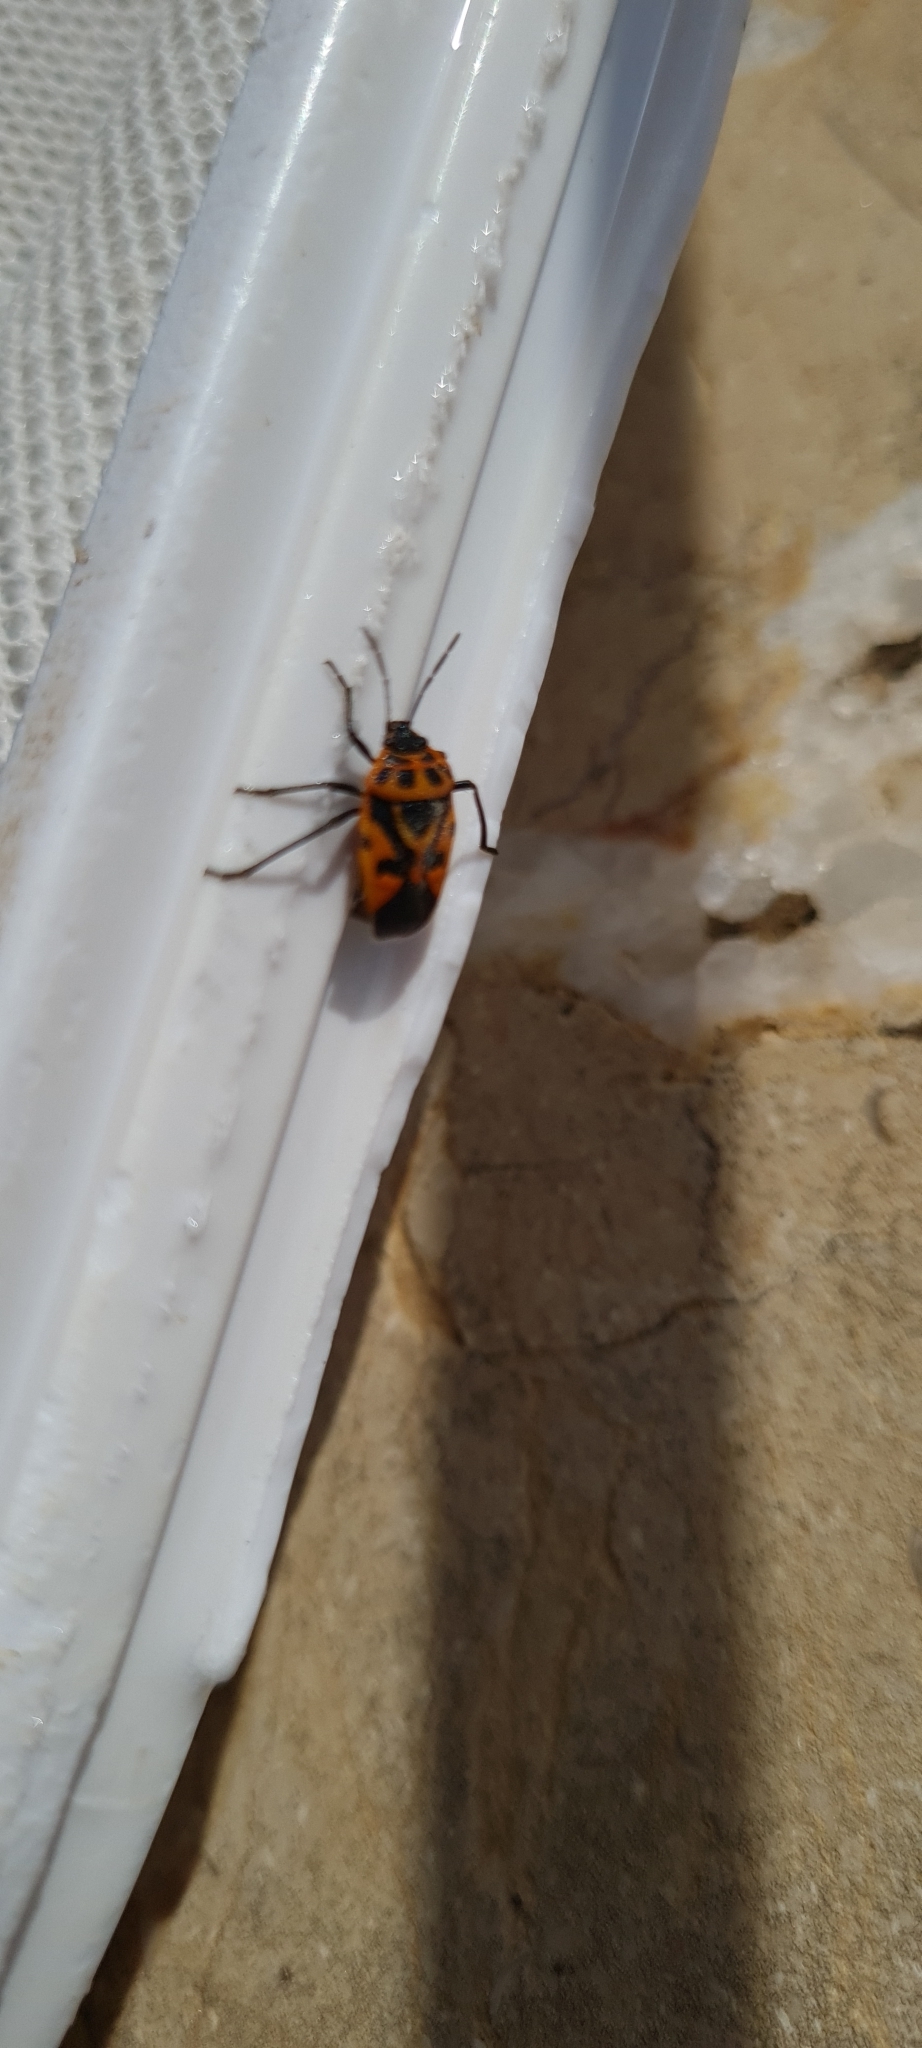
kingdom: Animalia
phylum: Arthropoda
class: Insecta
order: Hemiptera
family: Pentatomidae
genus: Eurydema
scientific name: Eurydema ventralis
